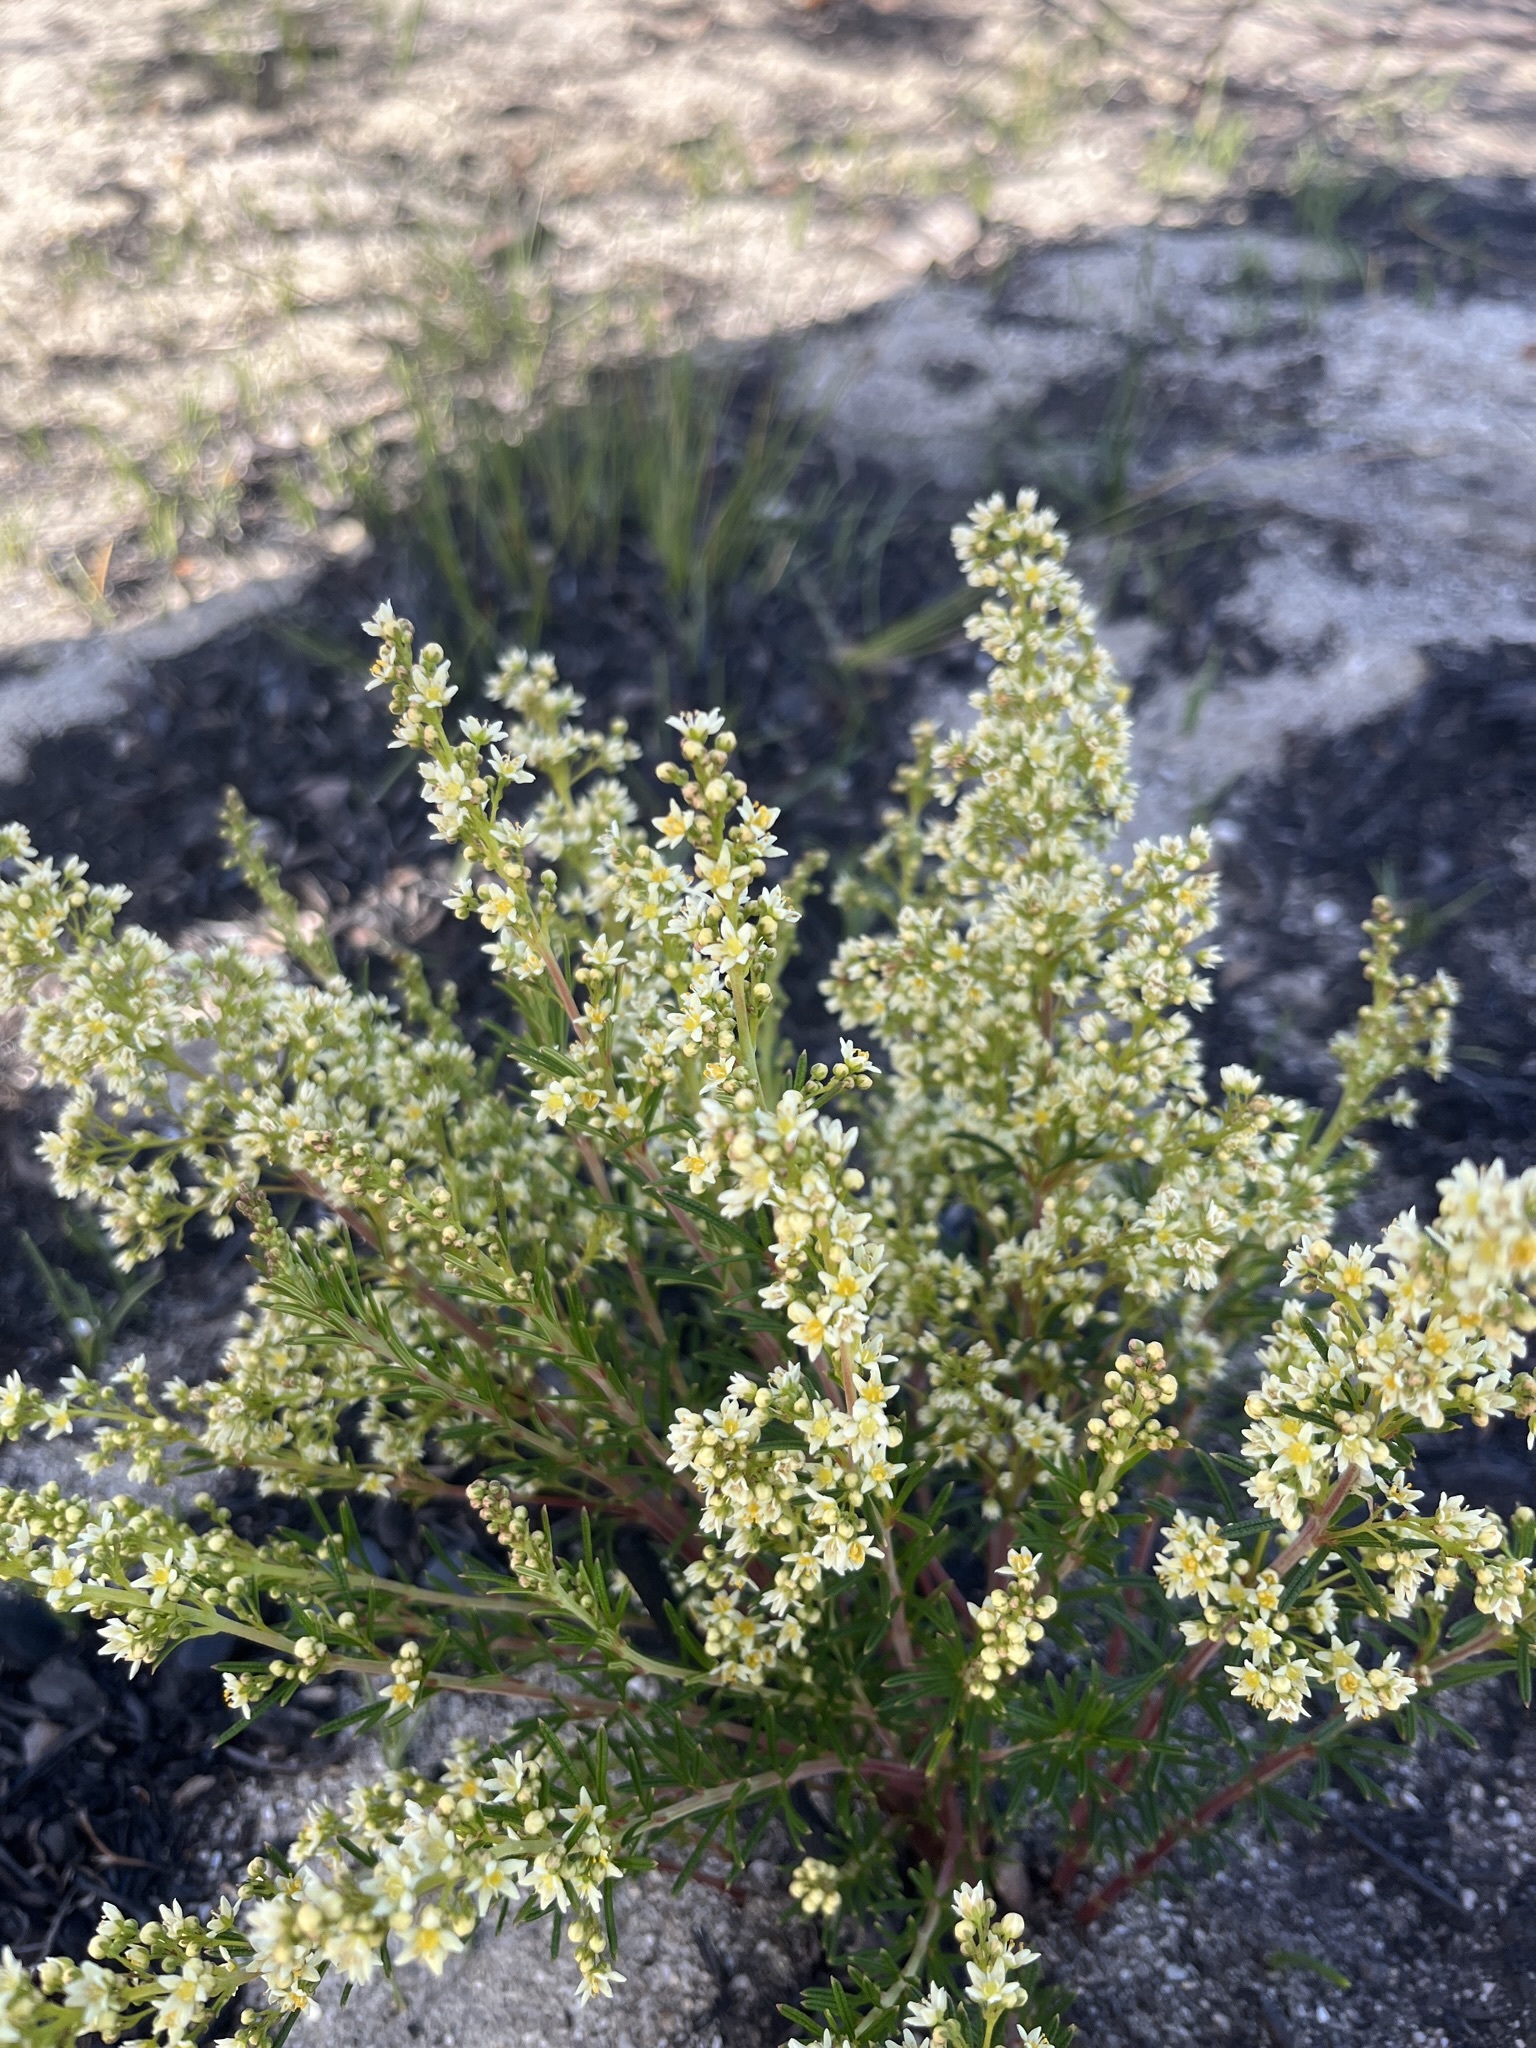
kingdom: Plantae
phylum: Tracheophyta
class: Magnoliopsida
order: Sapindales
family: Anacardiaceae
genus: Searsia
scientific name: Searsia rosmarinifolia
